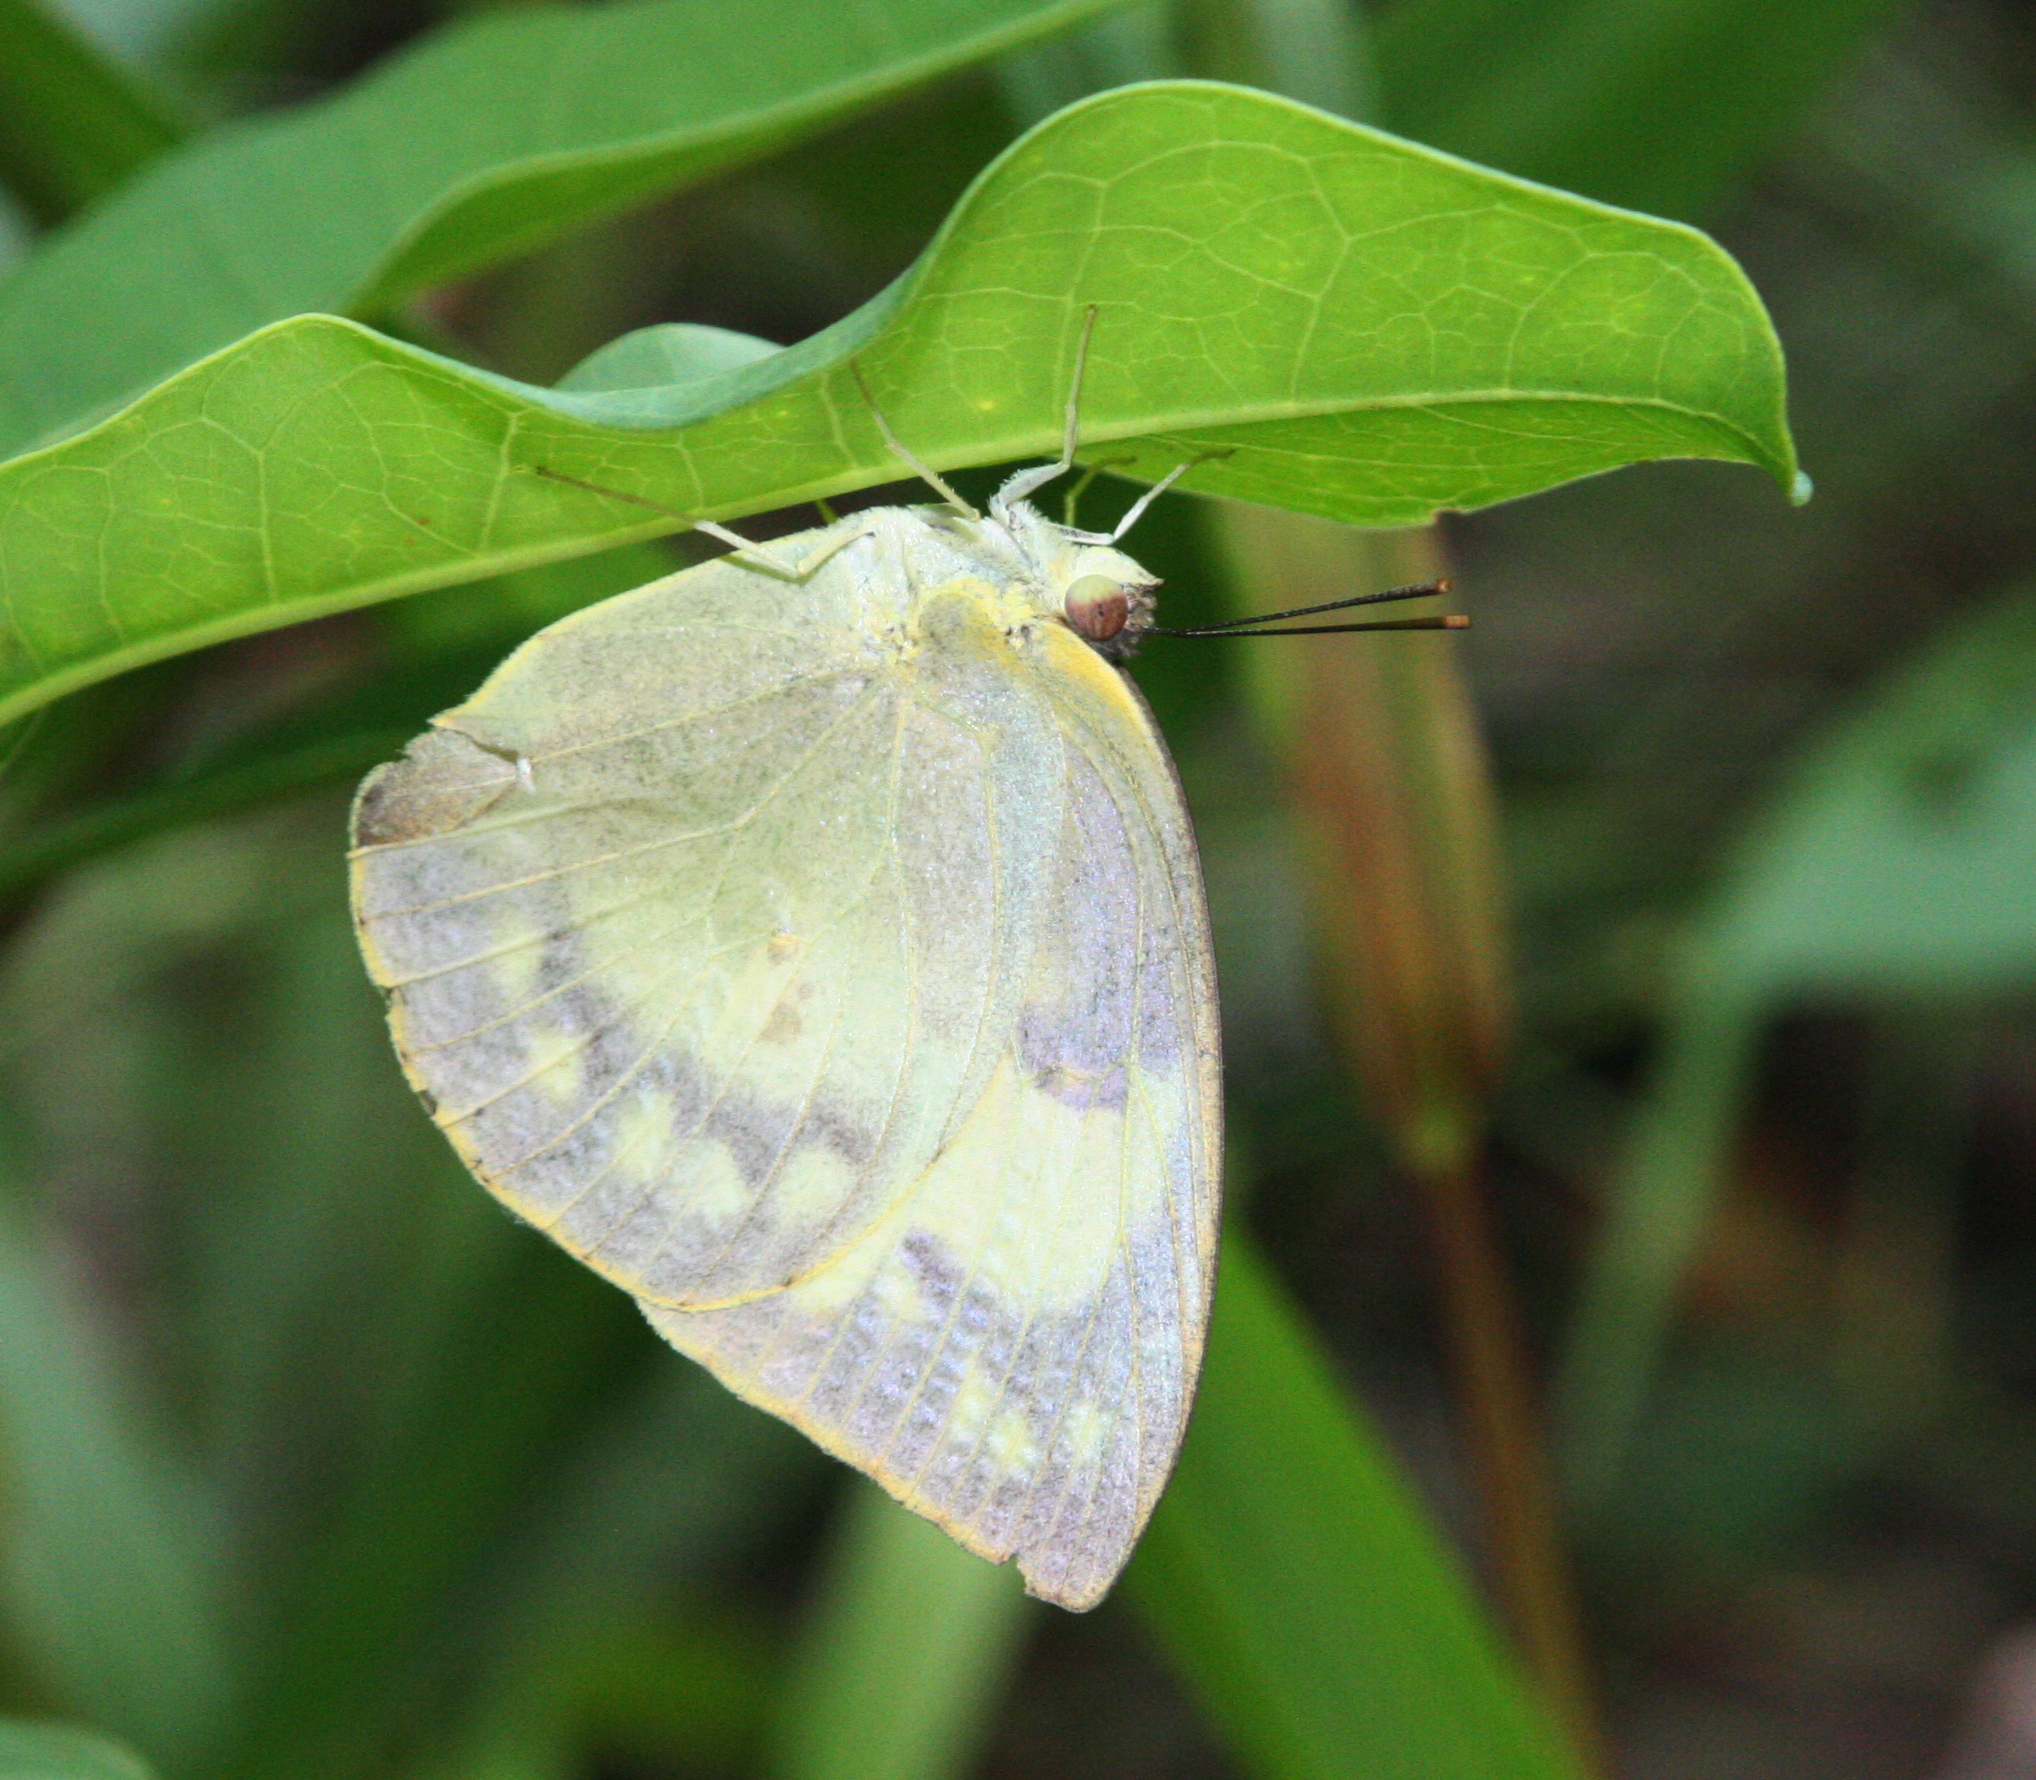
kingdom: Animalia
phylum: Arthropoda
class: Insecta
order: Lepidoptera
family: Pieridae
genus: Catopsilia
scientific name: Catopsilia pomona
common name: Common emigrant
